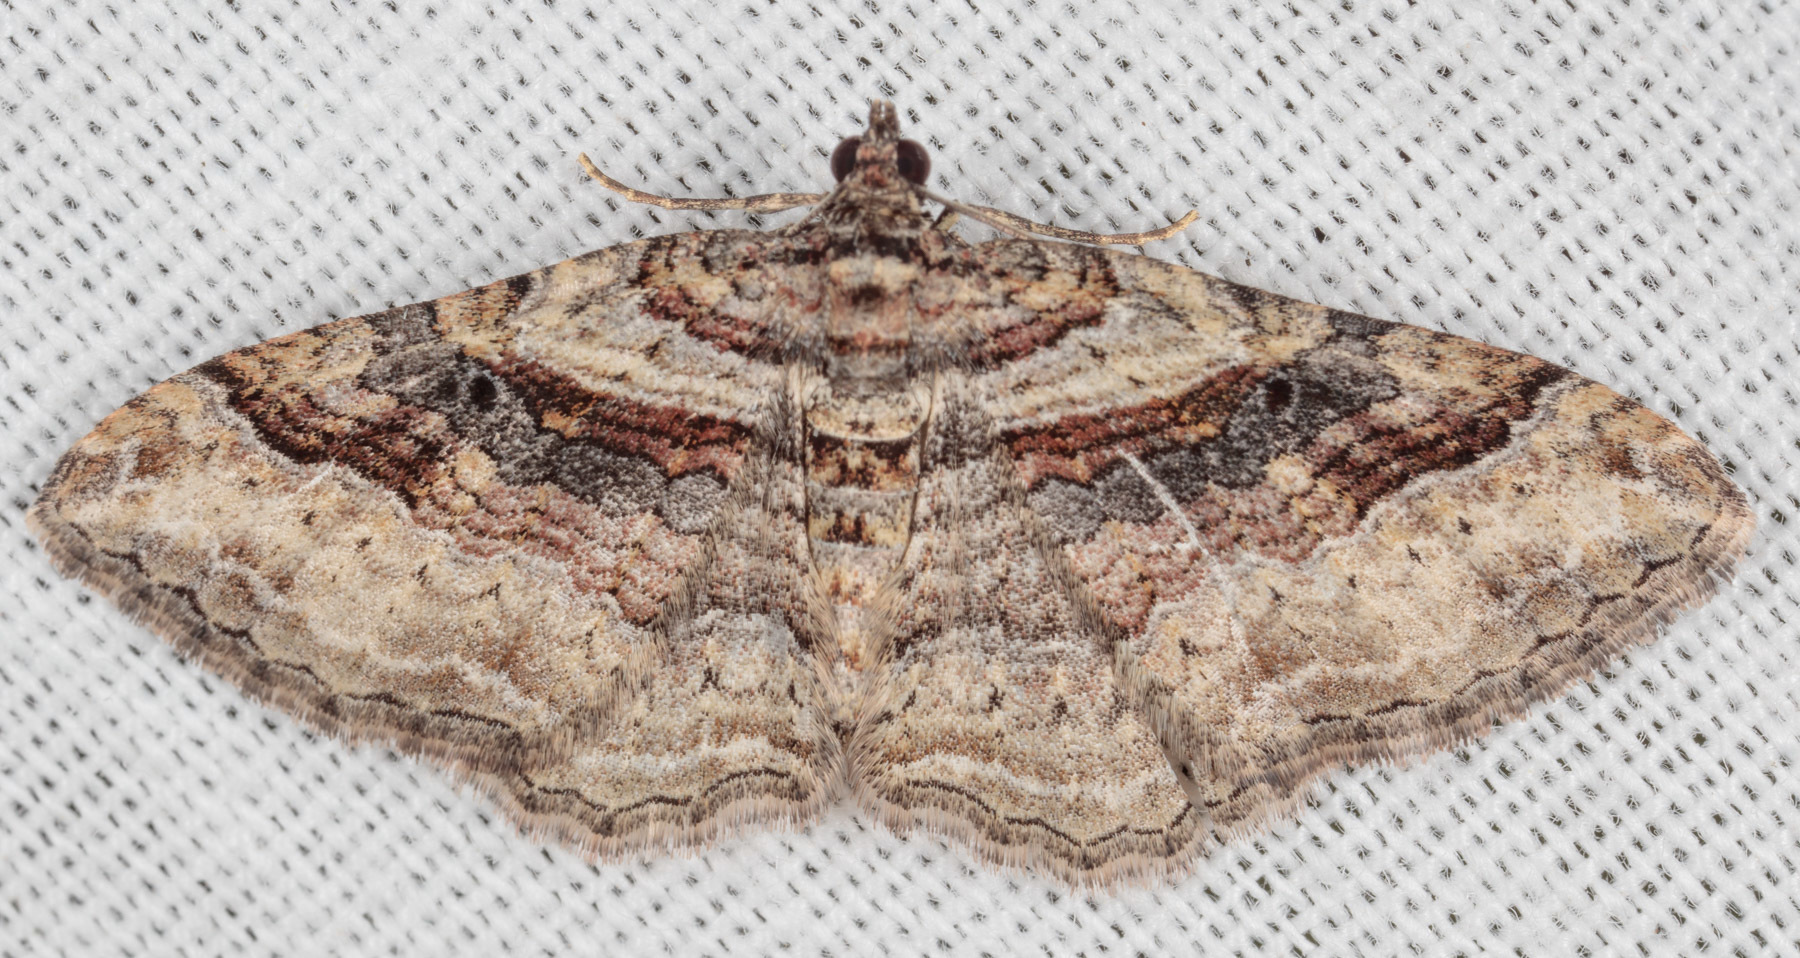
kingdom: Animalia
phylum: Arthropoda
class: Insecta
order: Lepidoptera
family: Geometridae
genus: Costaconvexa
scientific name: Costaconvexa centrostrigaria
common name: Bent-line carpet
